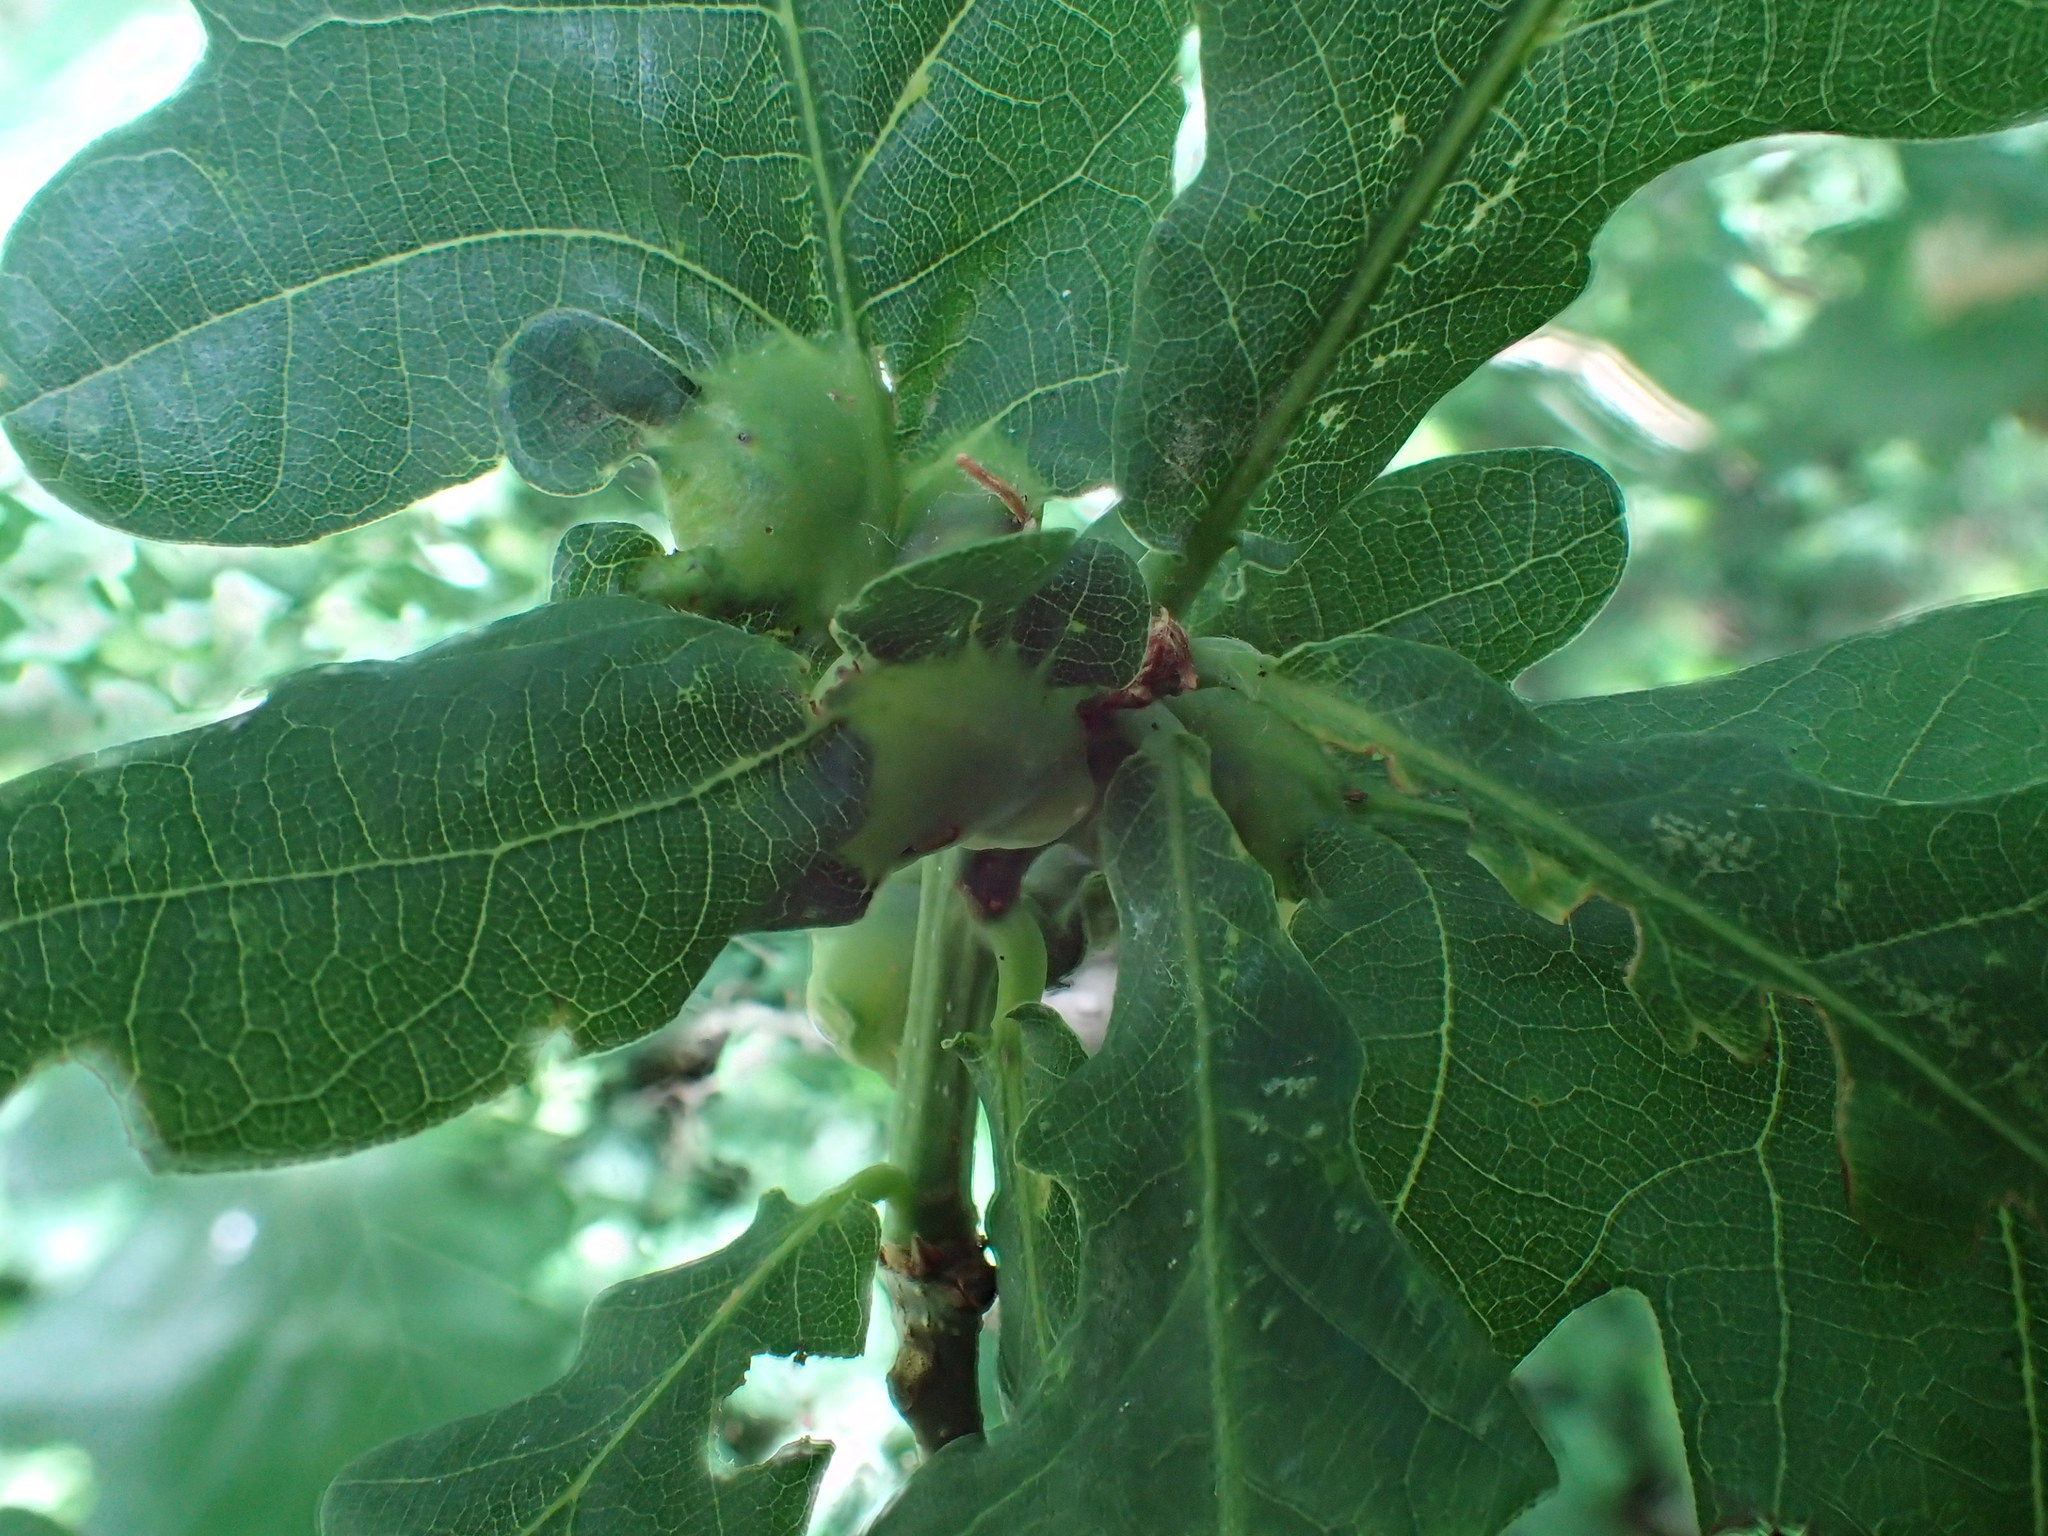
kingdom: Animalia
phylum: Arthropoda
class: Insecta
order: Hymenoptera
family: Cynipidae
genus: Andricus
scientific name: Andricus curvator
